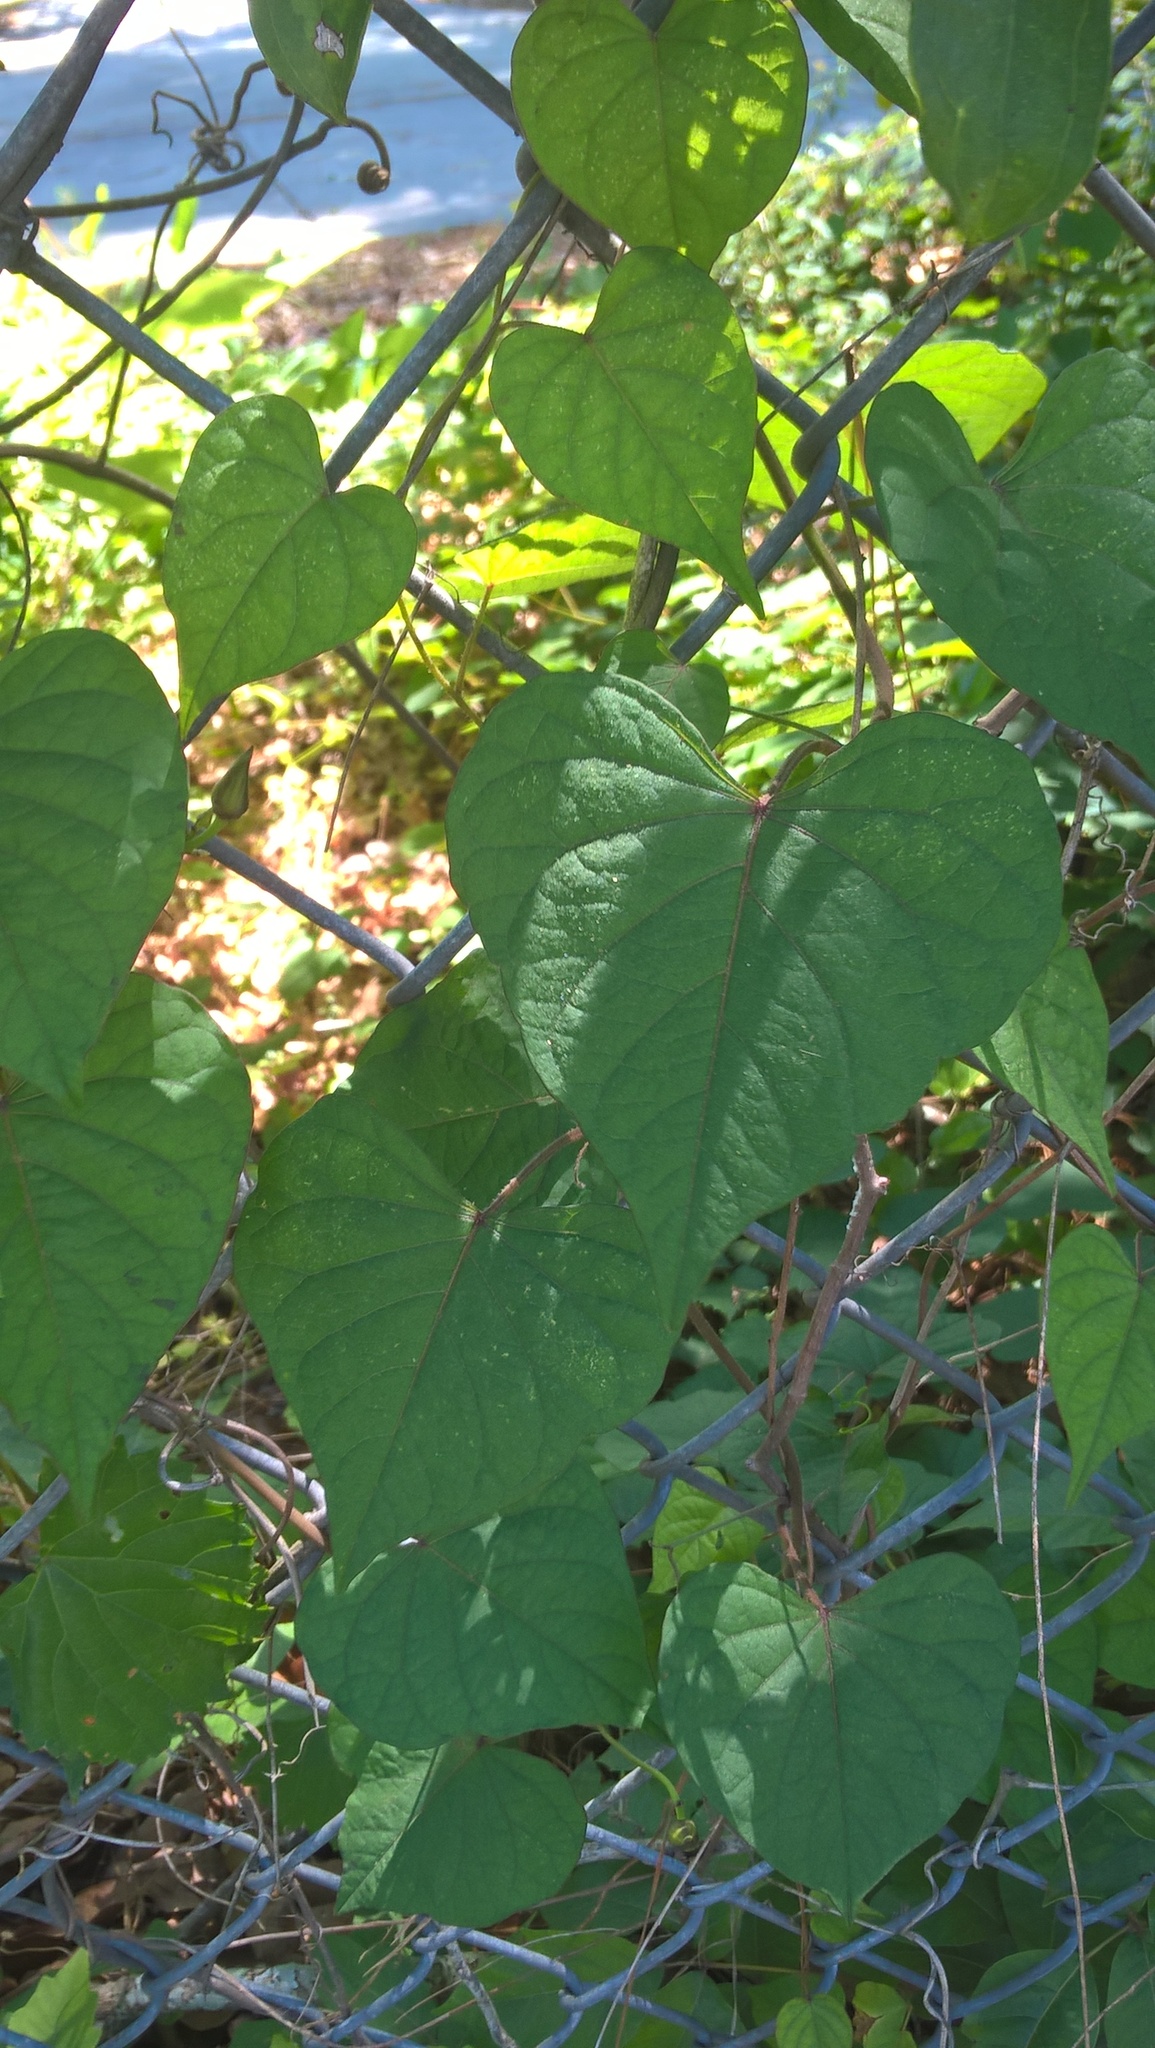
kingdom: Plantae
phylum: Tracheophyta
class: Magnoliopsida
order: Solanales
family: Convolvulaceae
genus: Ipomoea
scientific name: Ipomoea pandurata
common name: Man-of-the-earth
